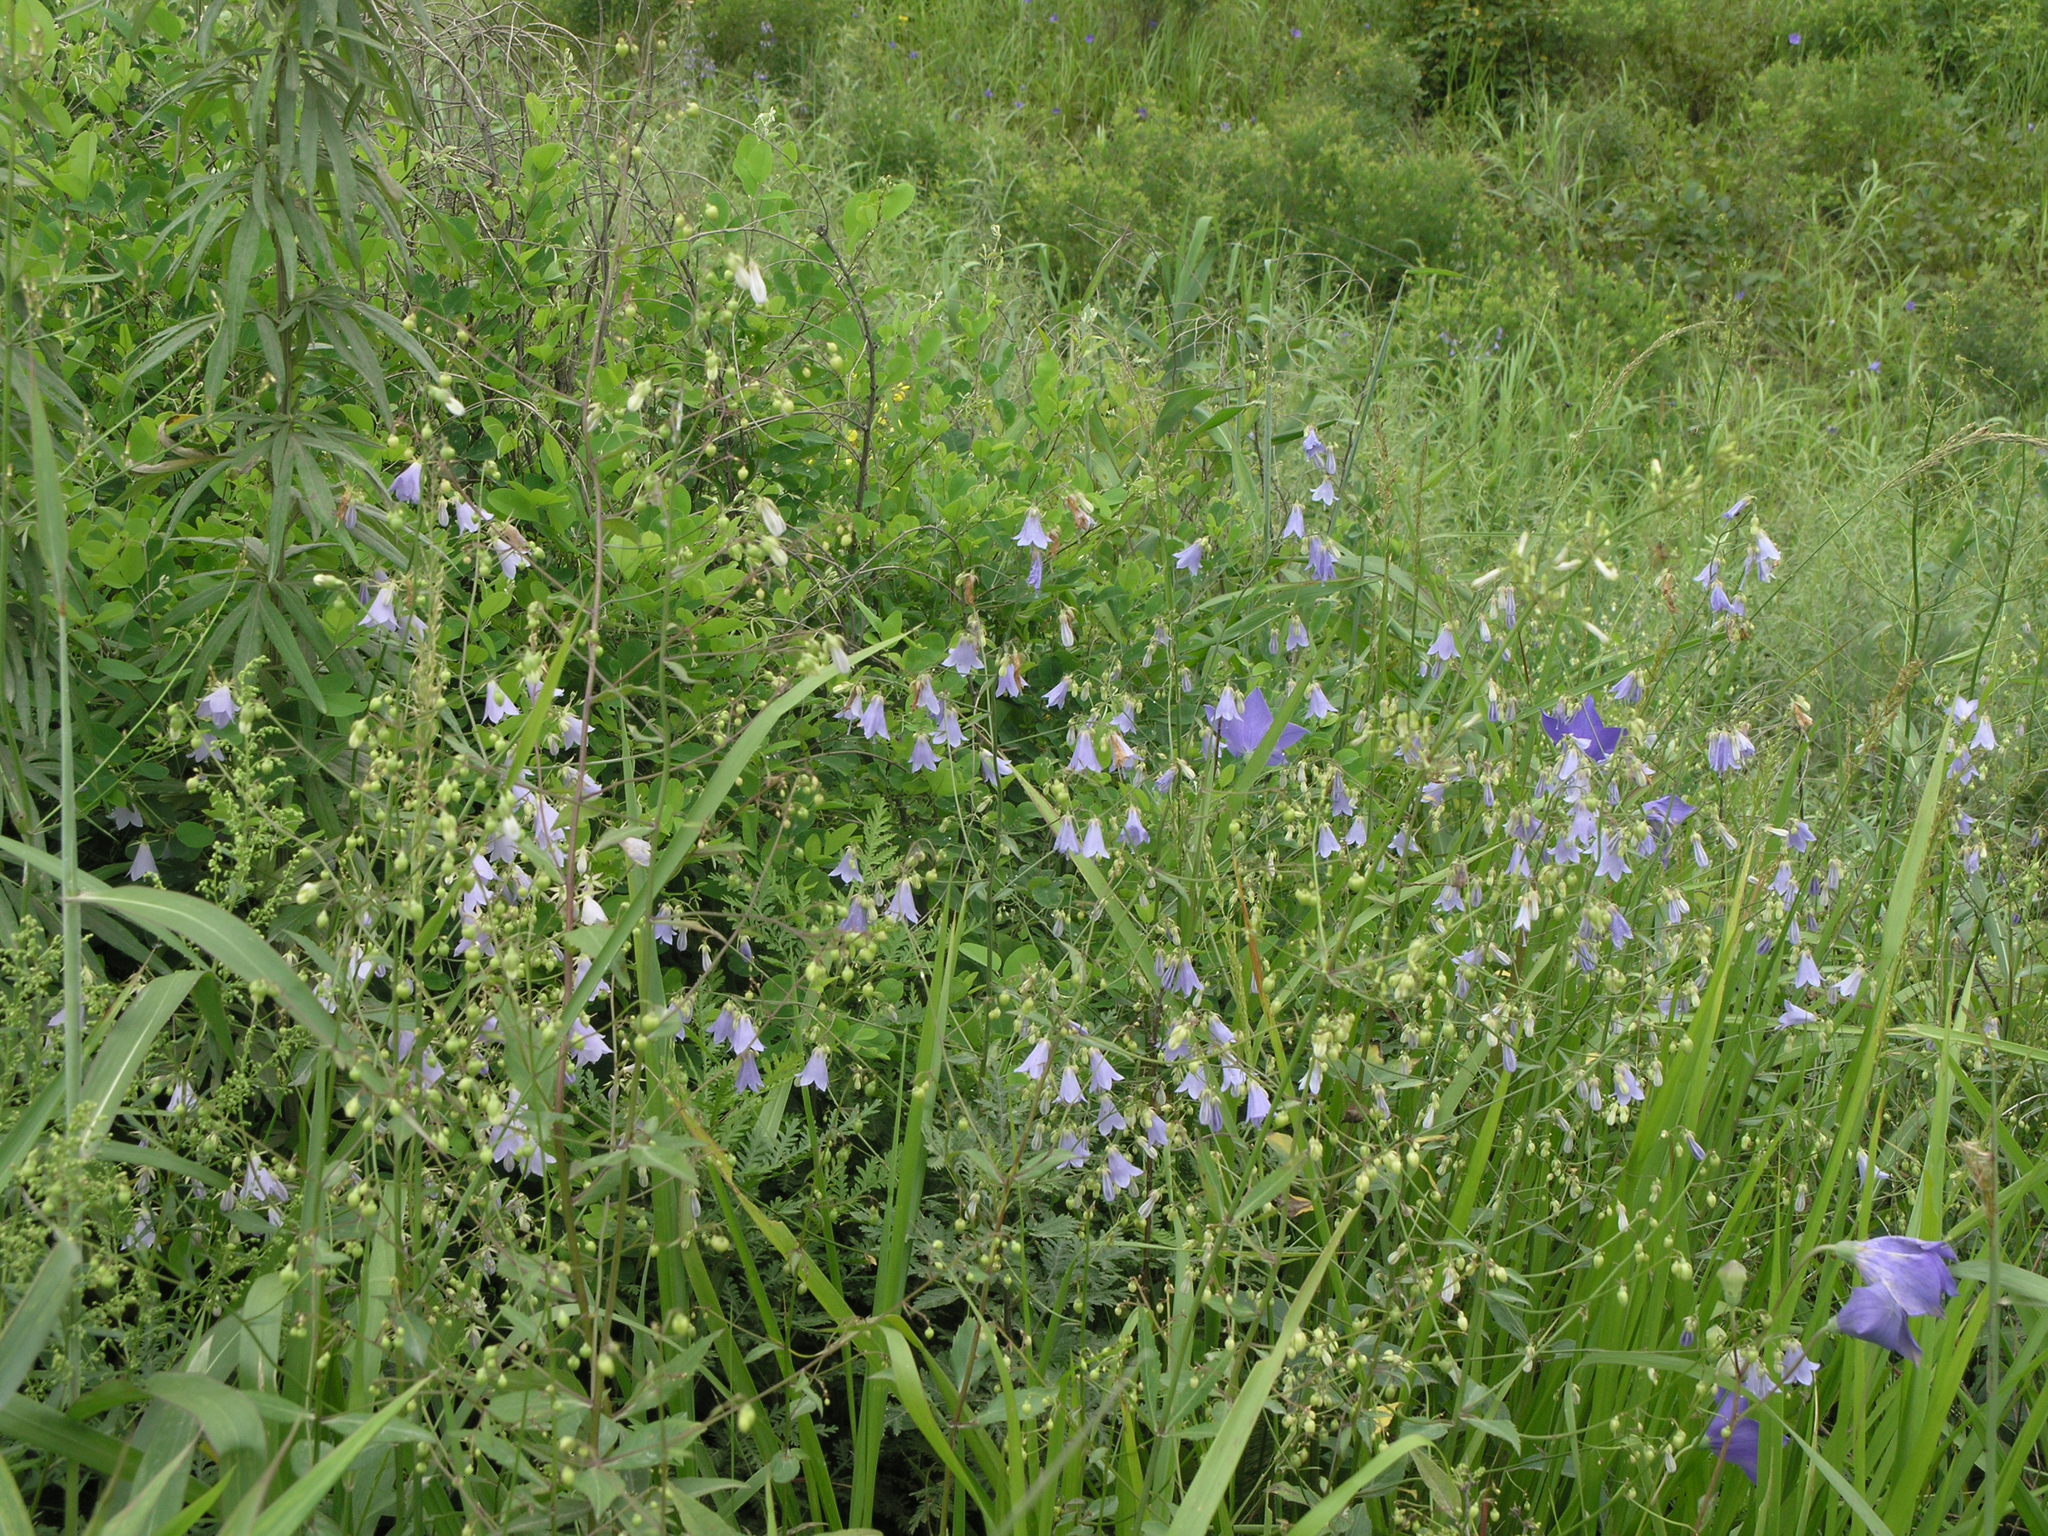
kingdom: Plantae
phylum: Tracheophyta
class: Magnoliopsida
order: Asterales
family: Campanulaceae
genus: Adenophora
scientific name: Adenophora divaricata
